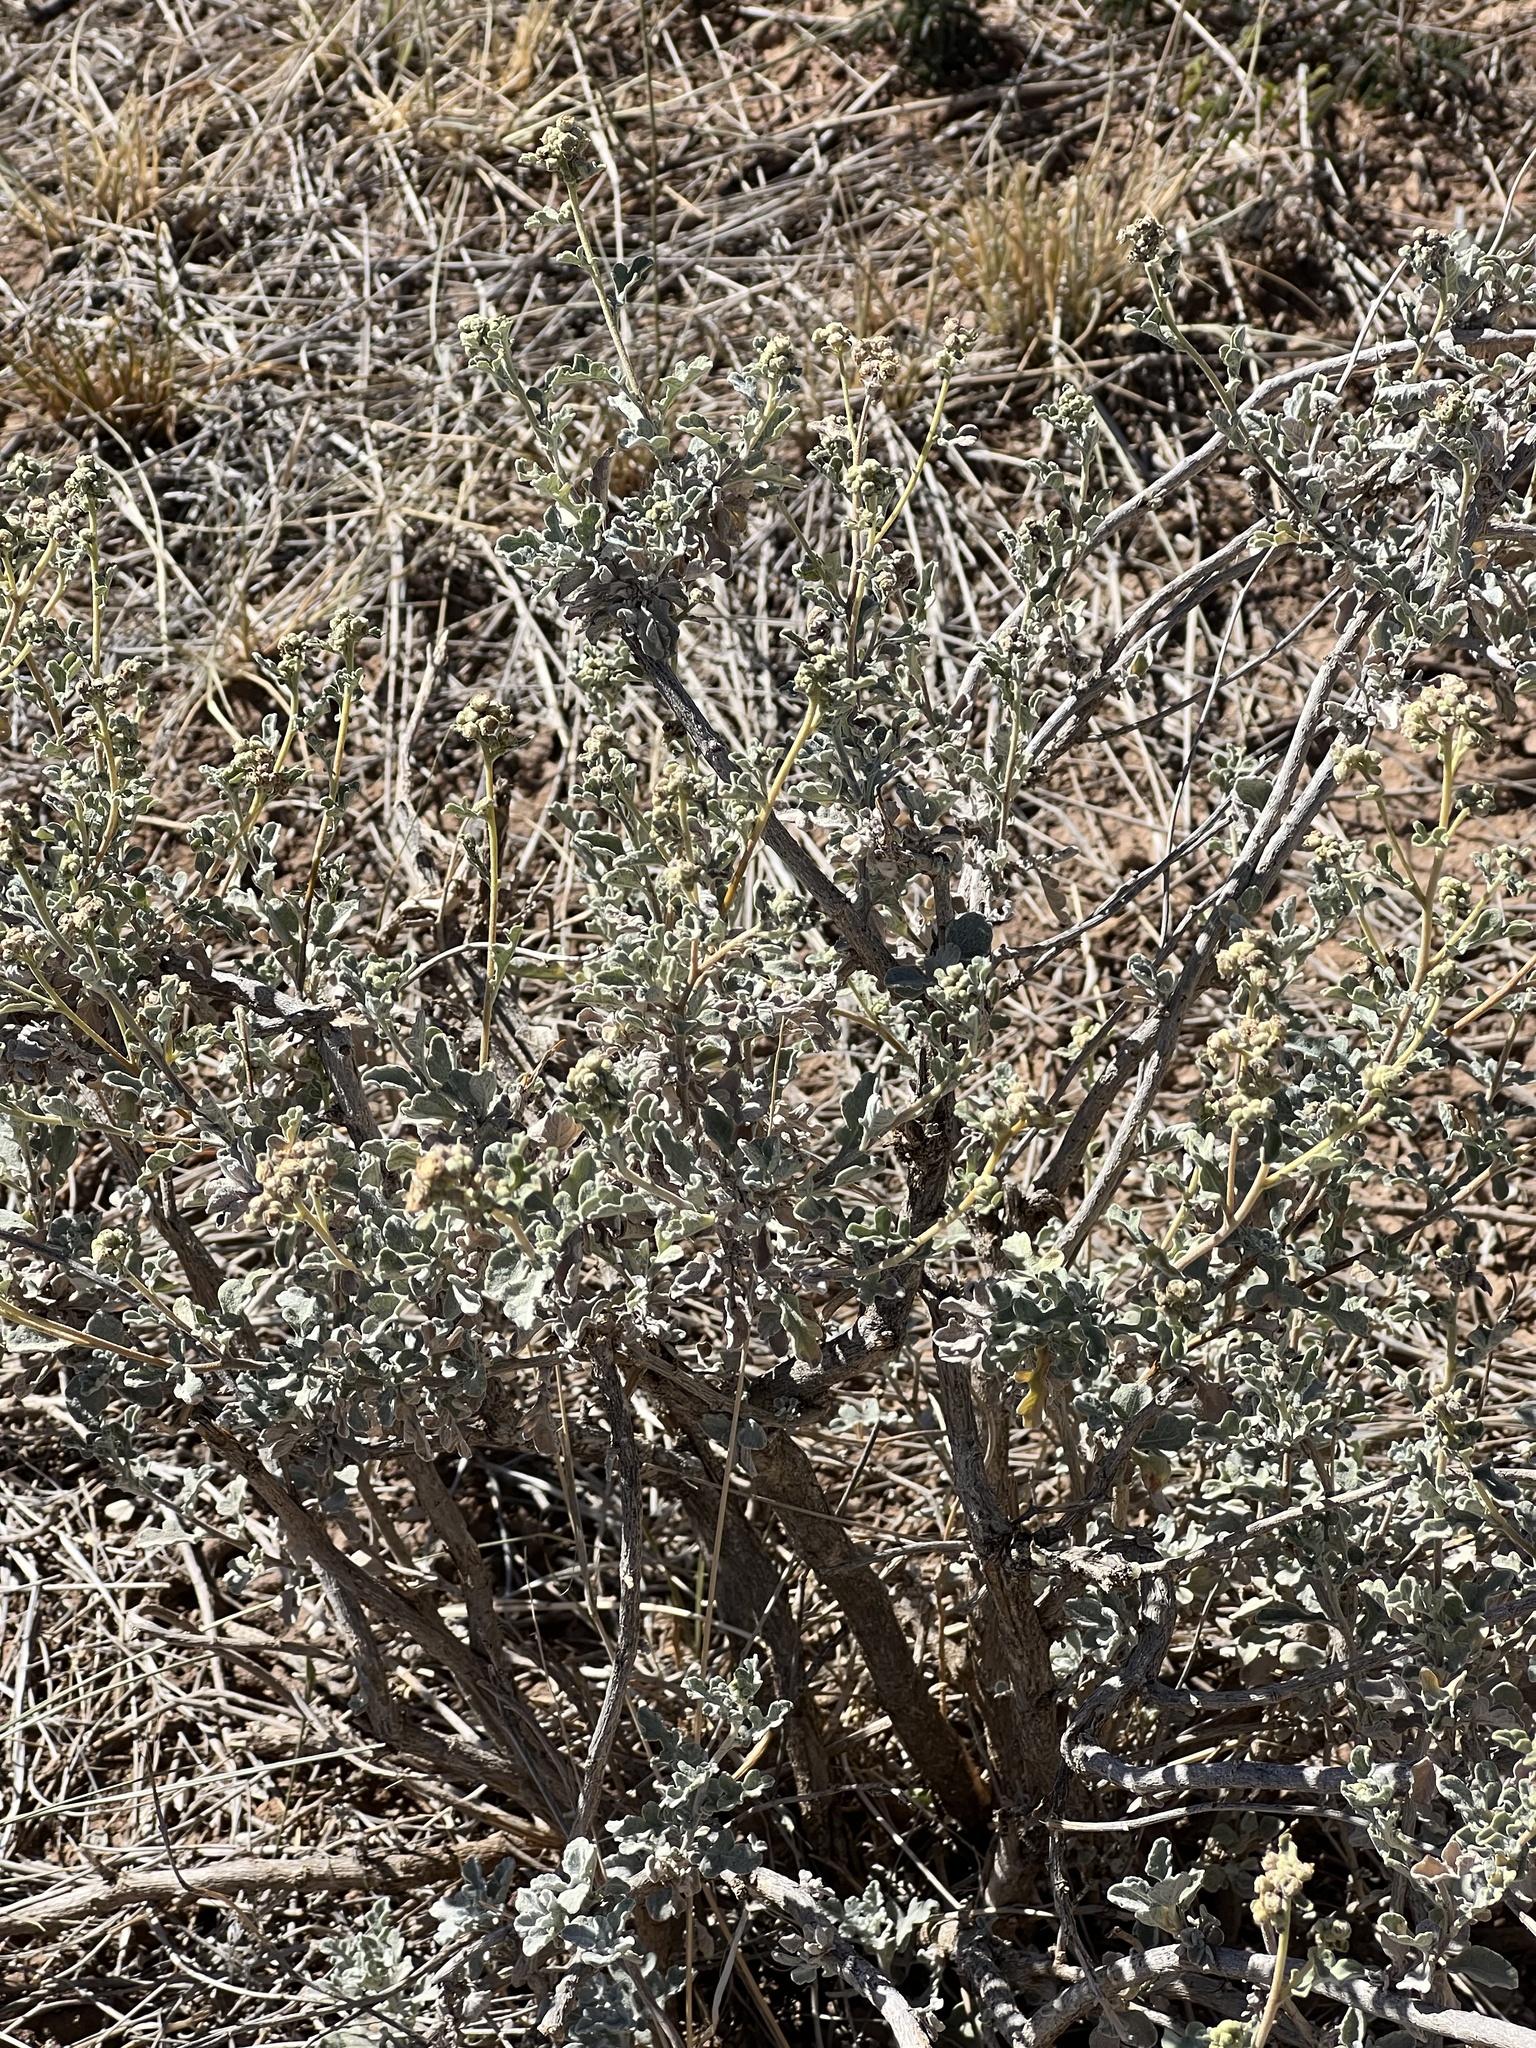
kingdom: Plantae
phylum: Tracheophyta
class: Magnoliopsida
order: Asterales
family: Asteraceae
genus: Parthenium
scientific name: Parthenium incanum
